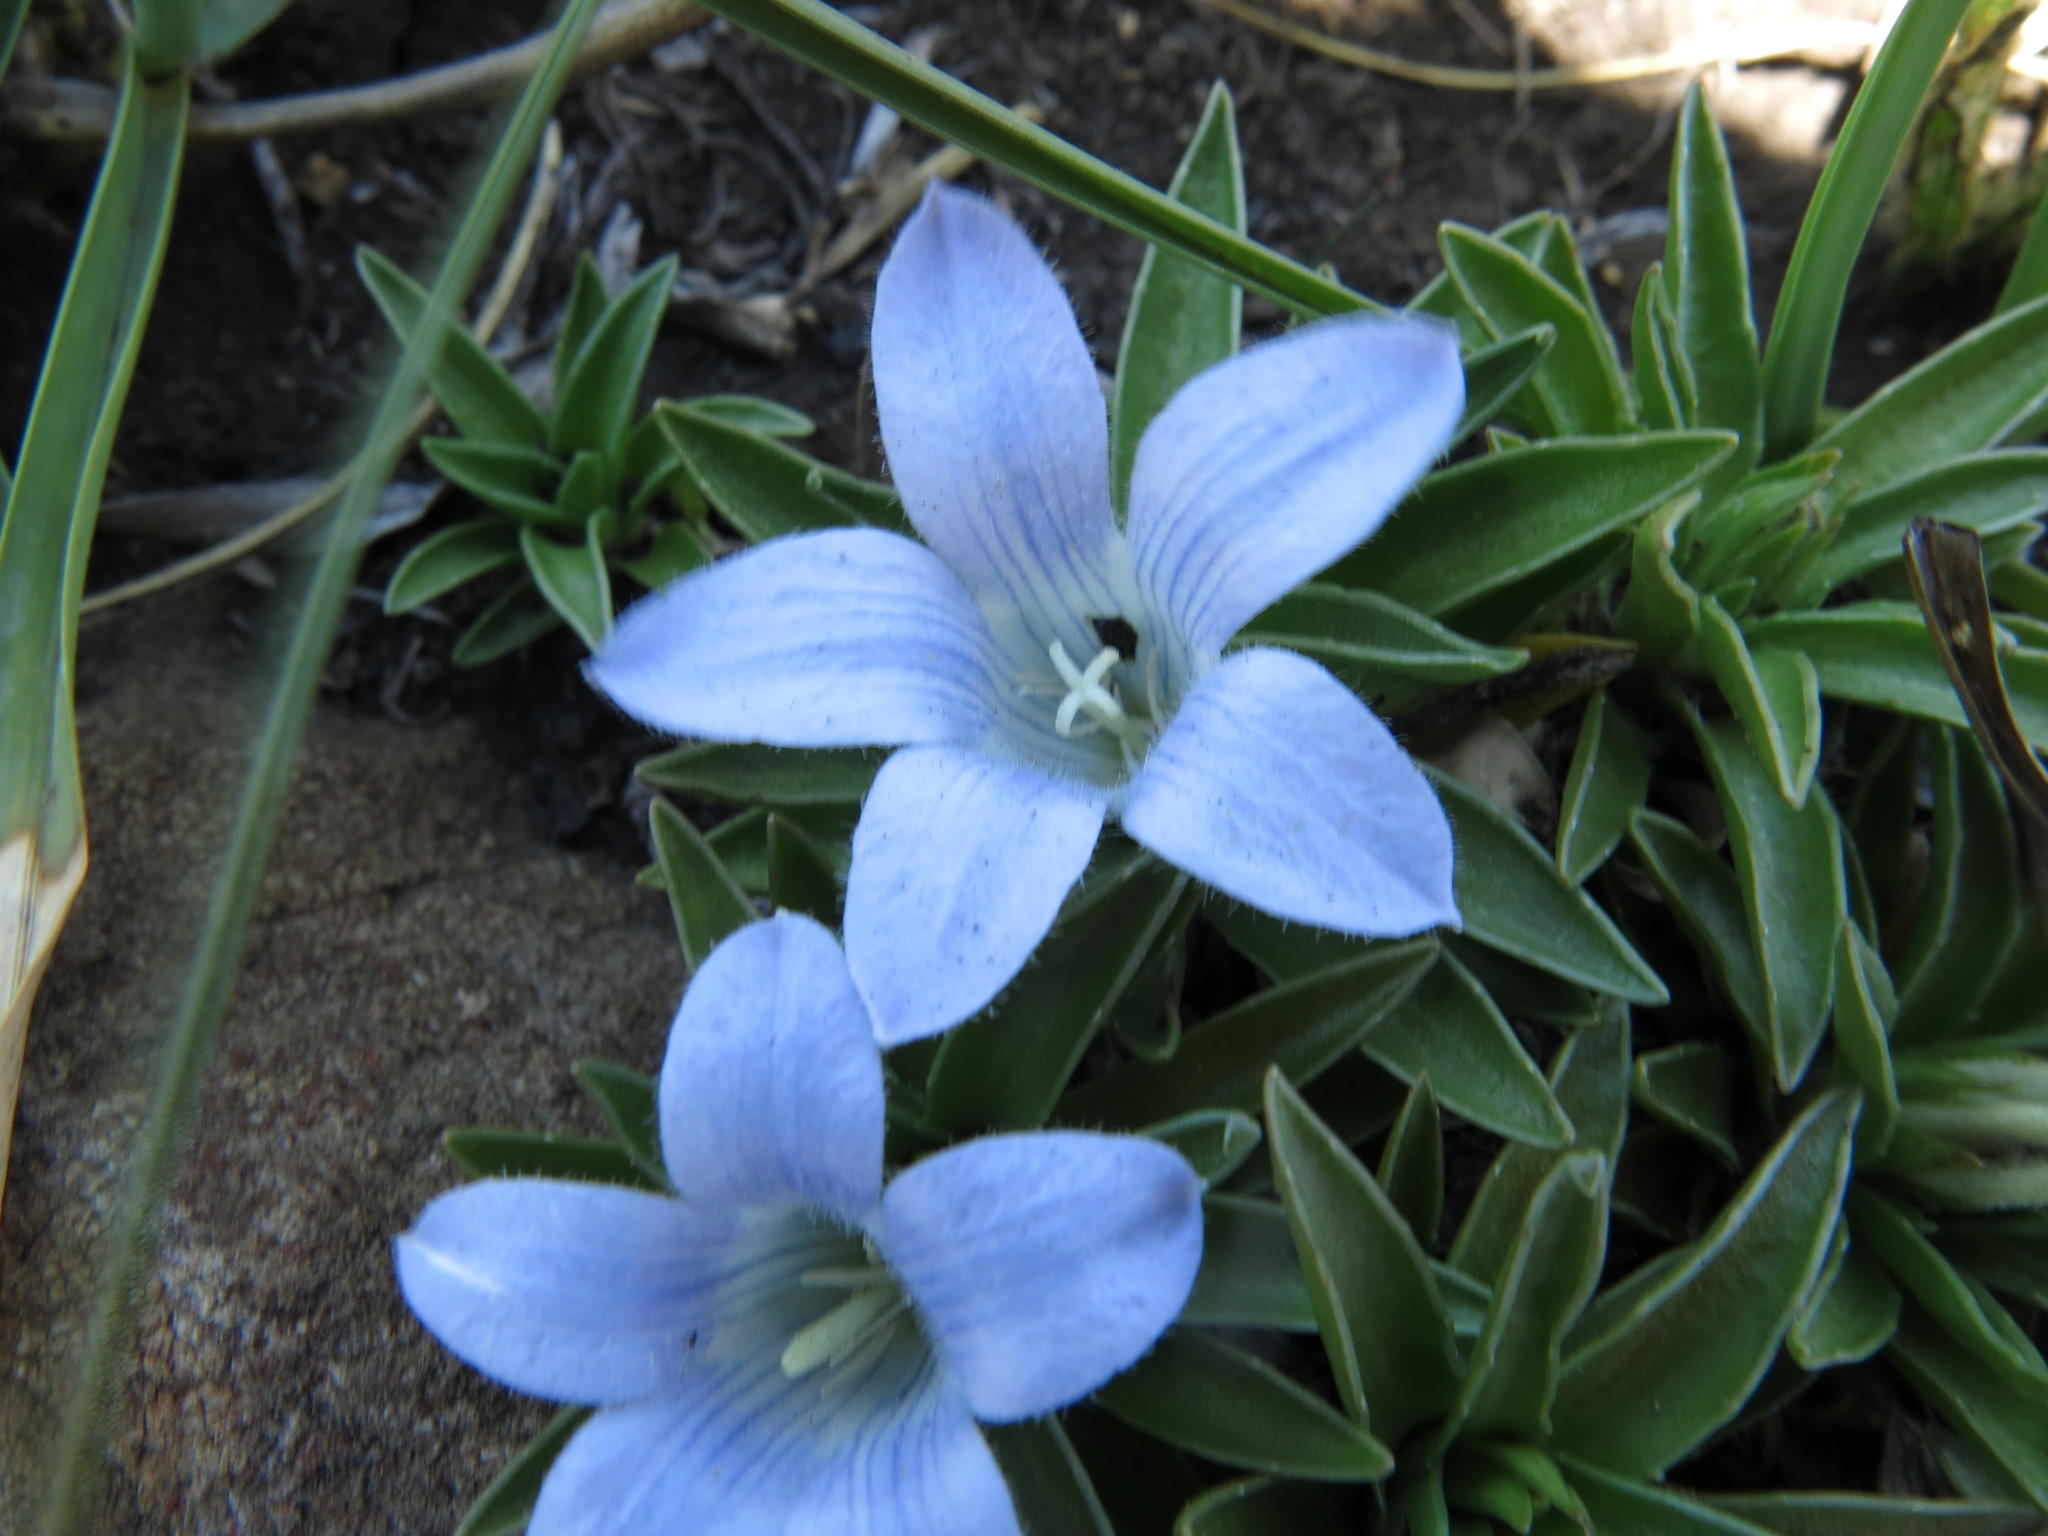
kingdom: Plantae
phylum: Tracheophyta
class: Magnoliopsida
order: Asterales
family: Campanulaceae
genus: Craterocapsa
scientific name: Craterocapsa tarsodes
